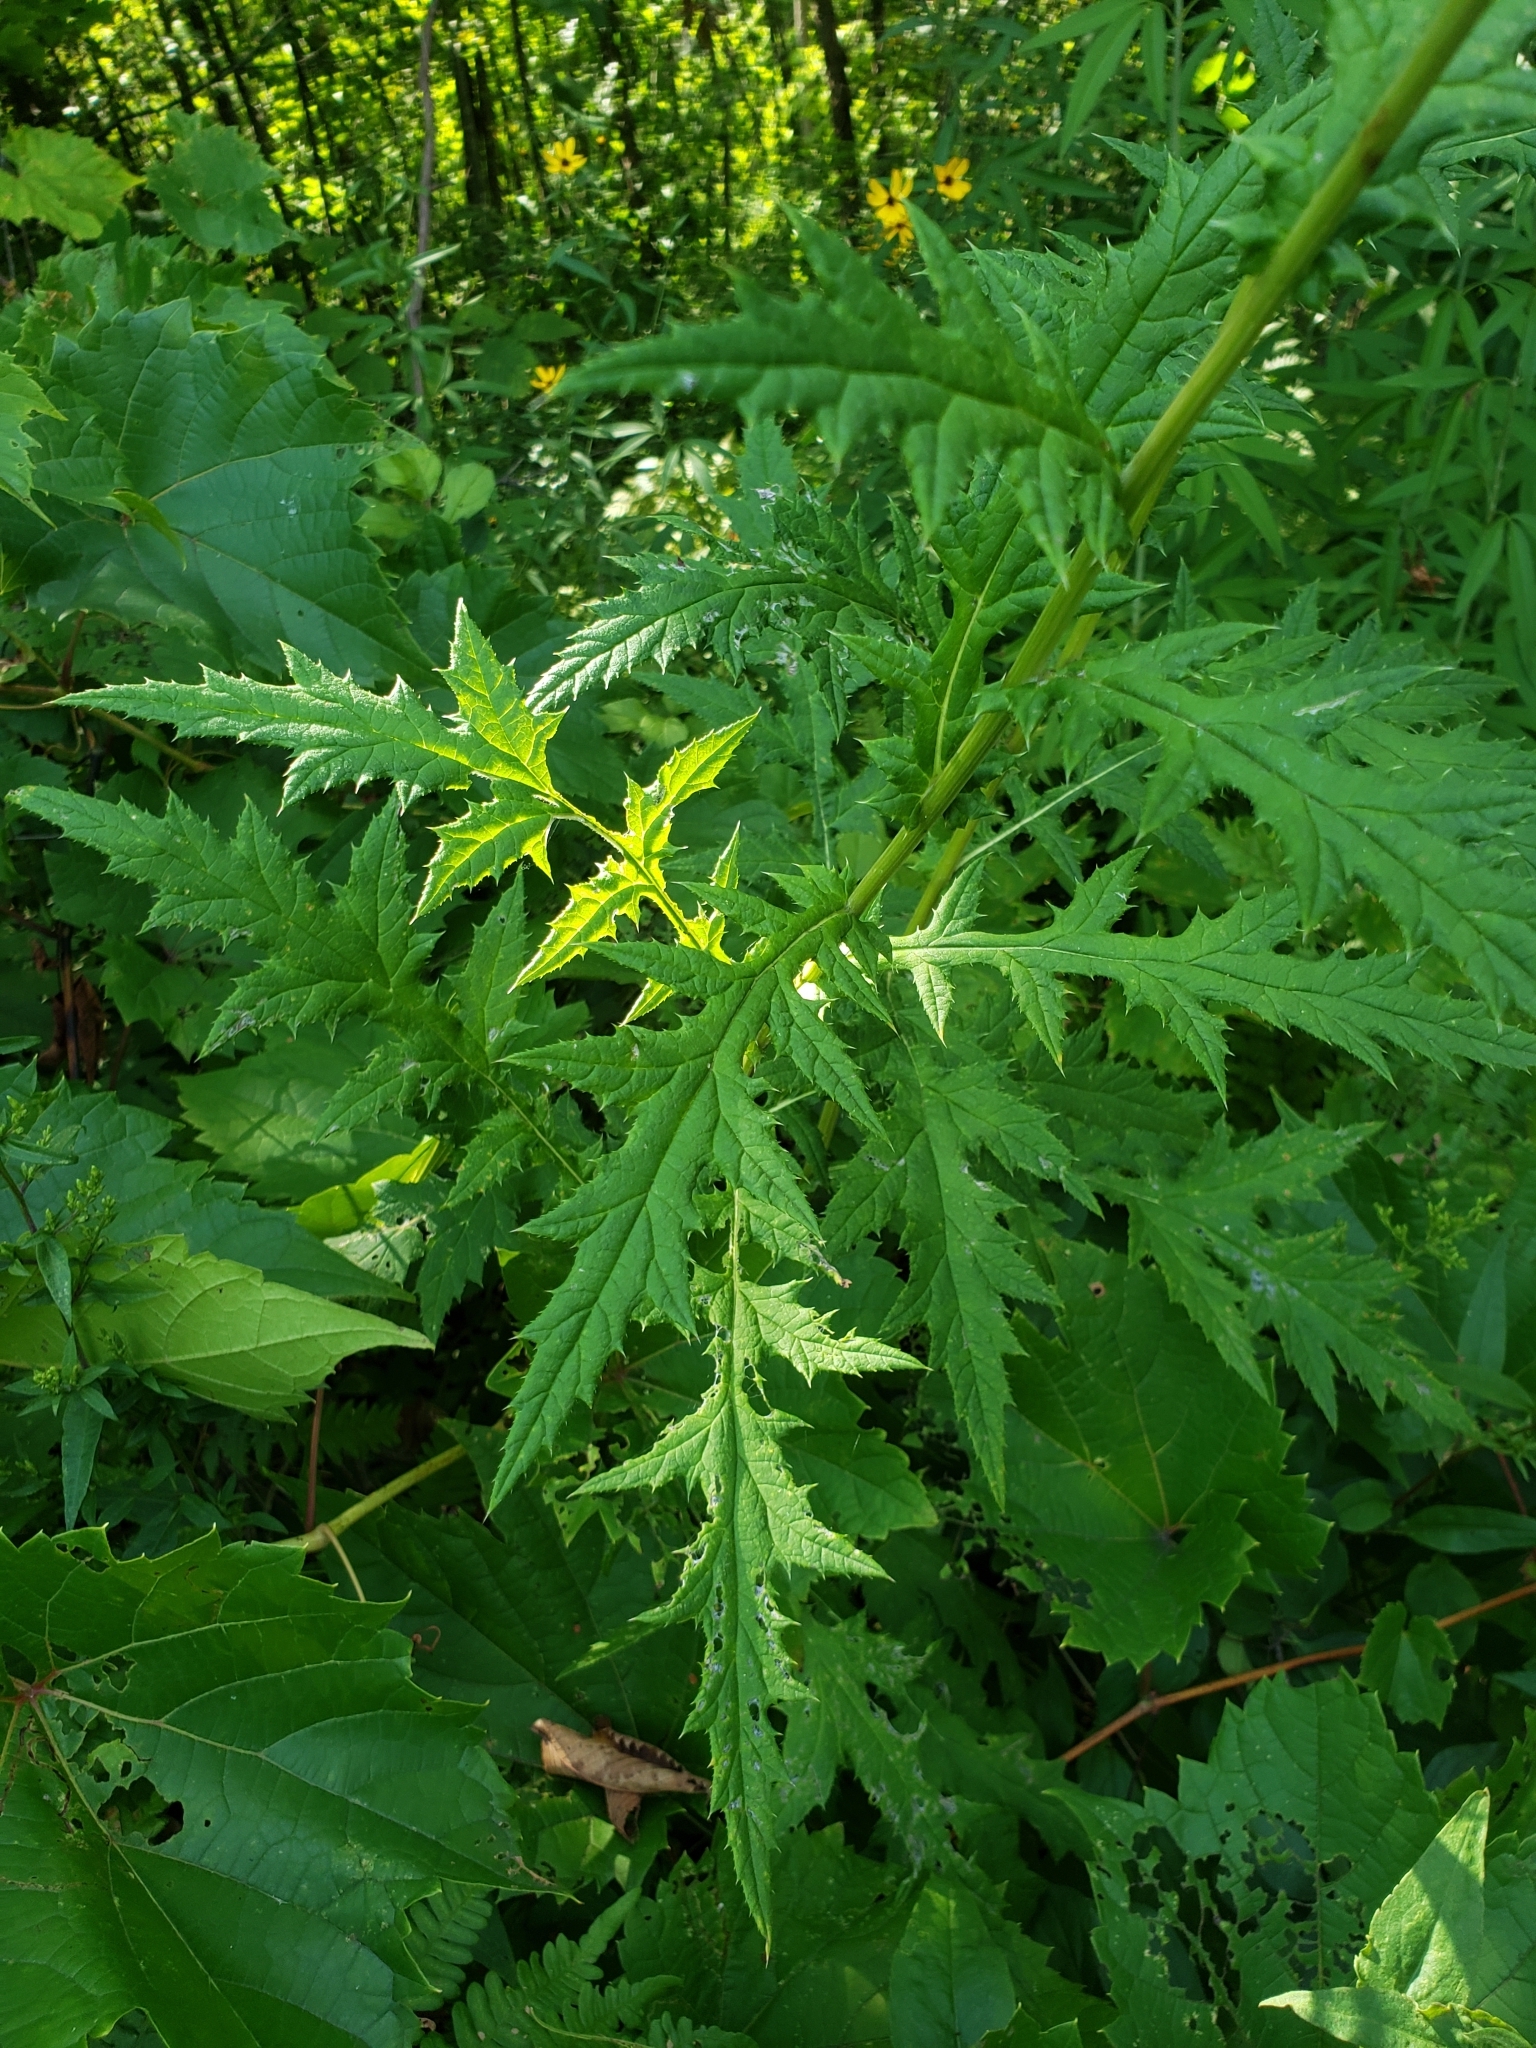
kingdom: Plantae
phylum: Tracheophyta
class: Magnoliopsida
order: Asterales
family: Asteraceae
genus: Echinops
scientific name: Echinops bannaticus
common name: Blue globe-thistle
